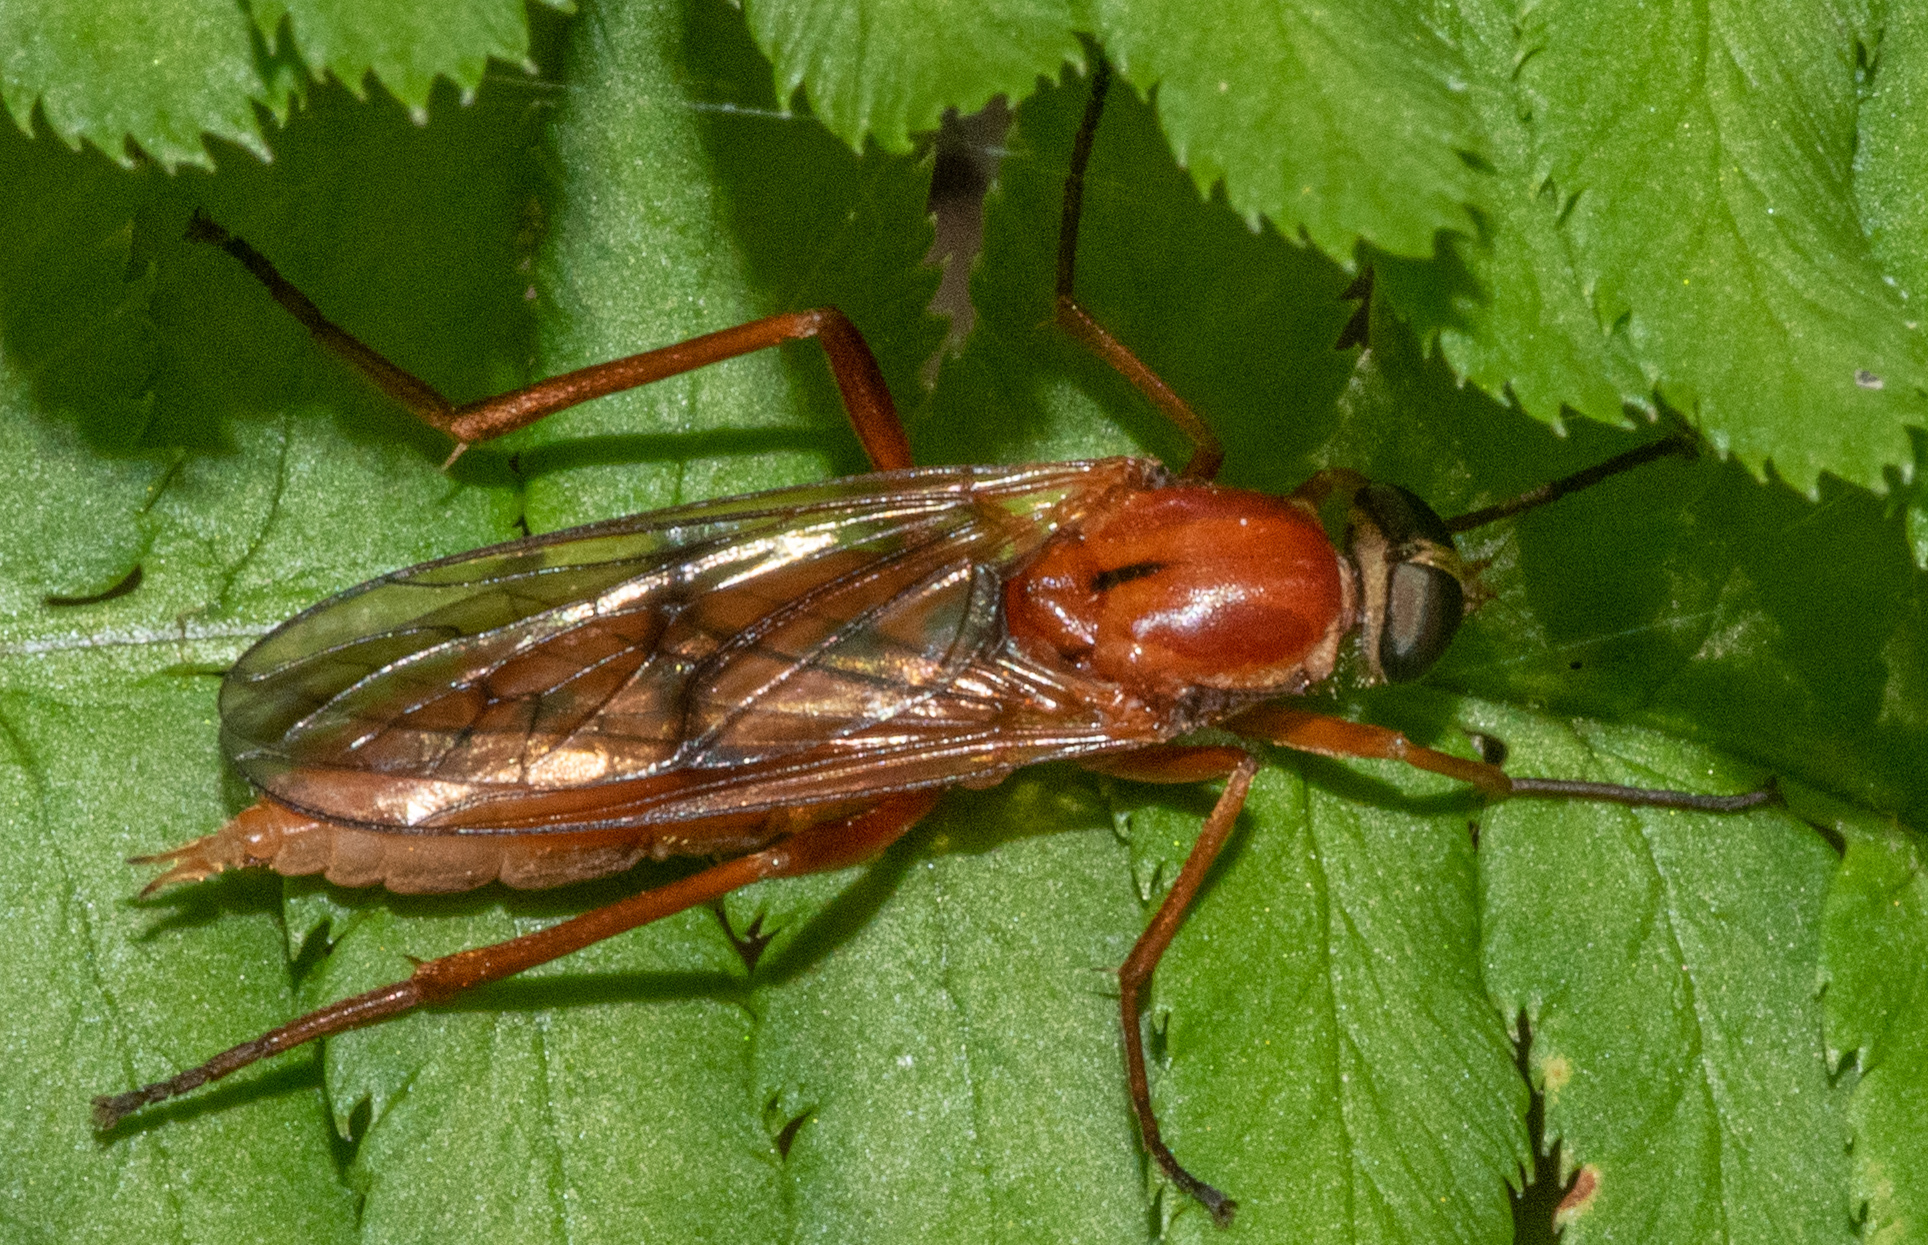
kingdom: Animalia
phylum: Arthropoda
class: Insecta
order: Diptera
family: Xylophagidae
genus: Dialysis
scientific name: Dialysis lauta
